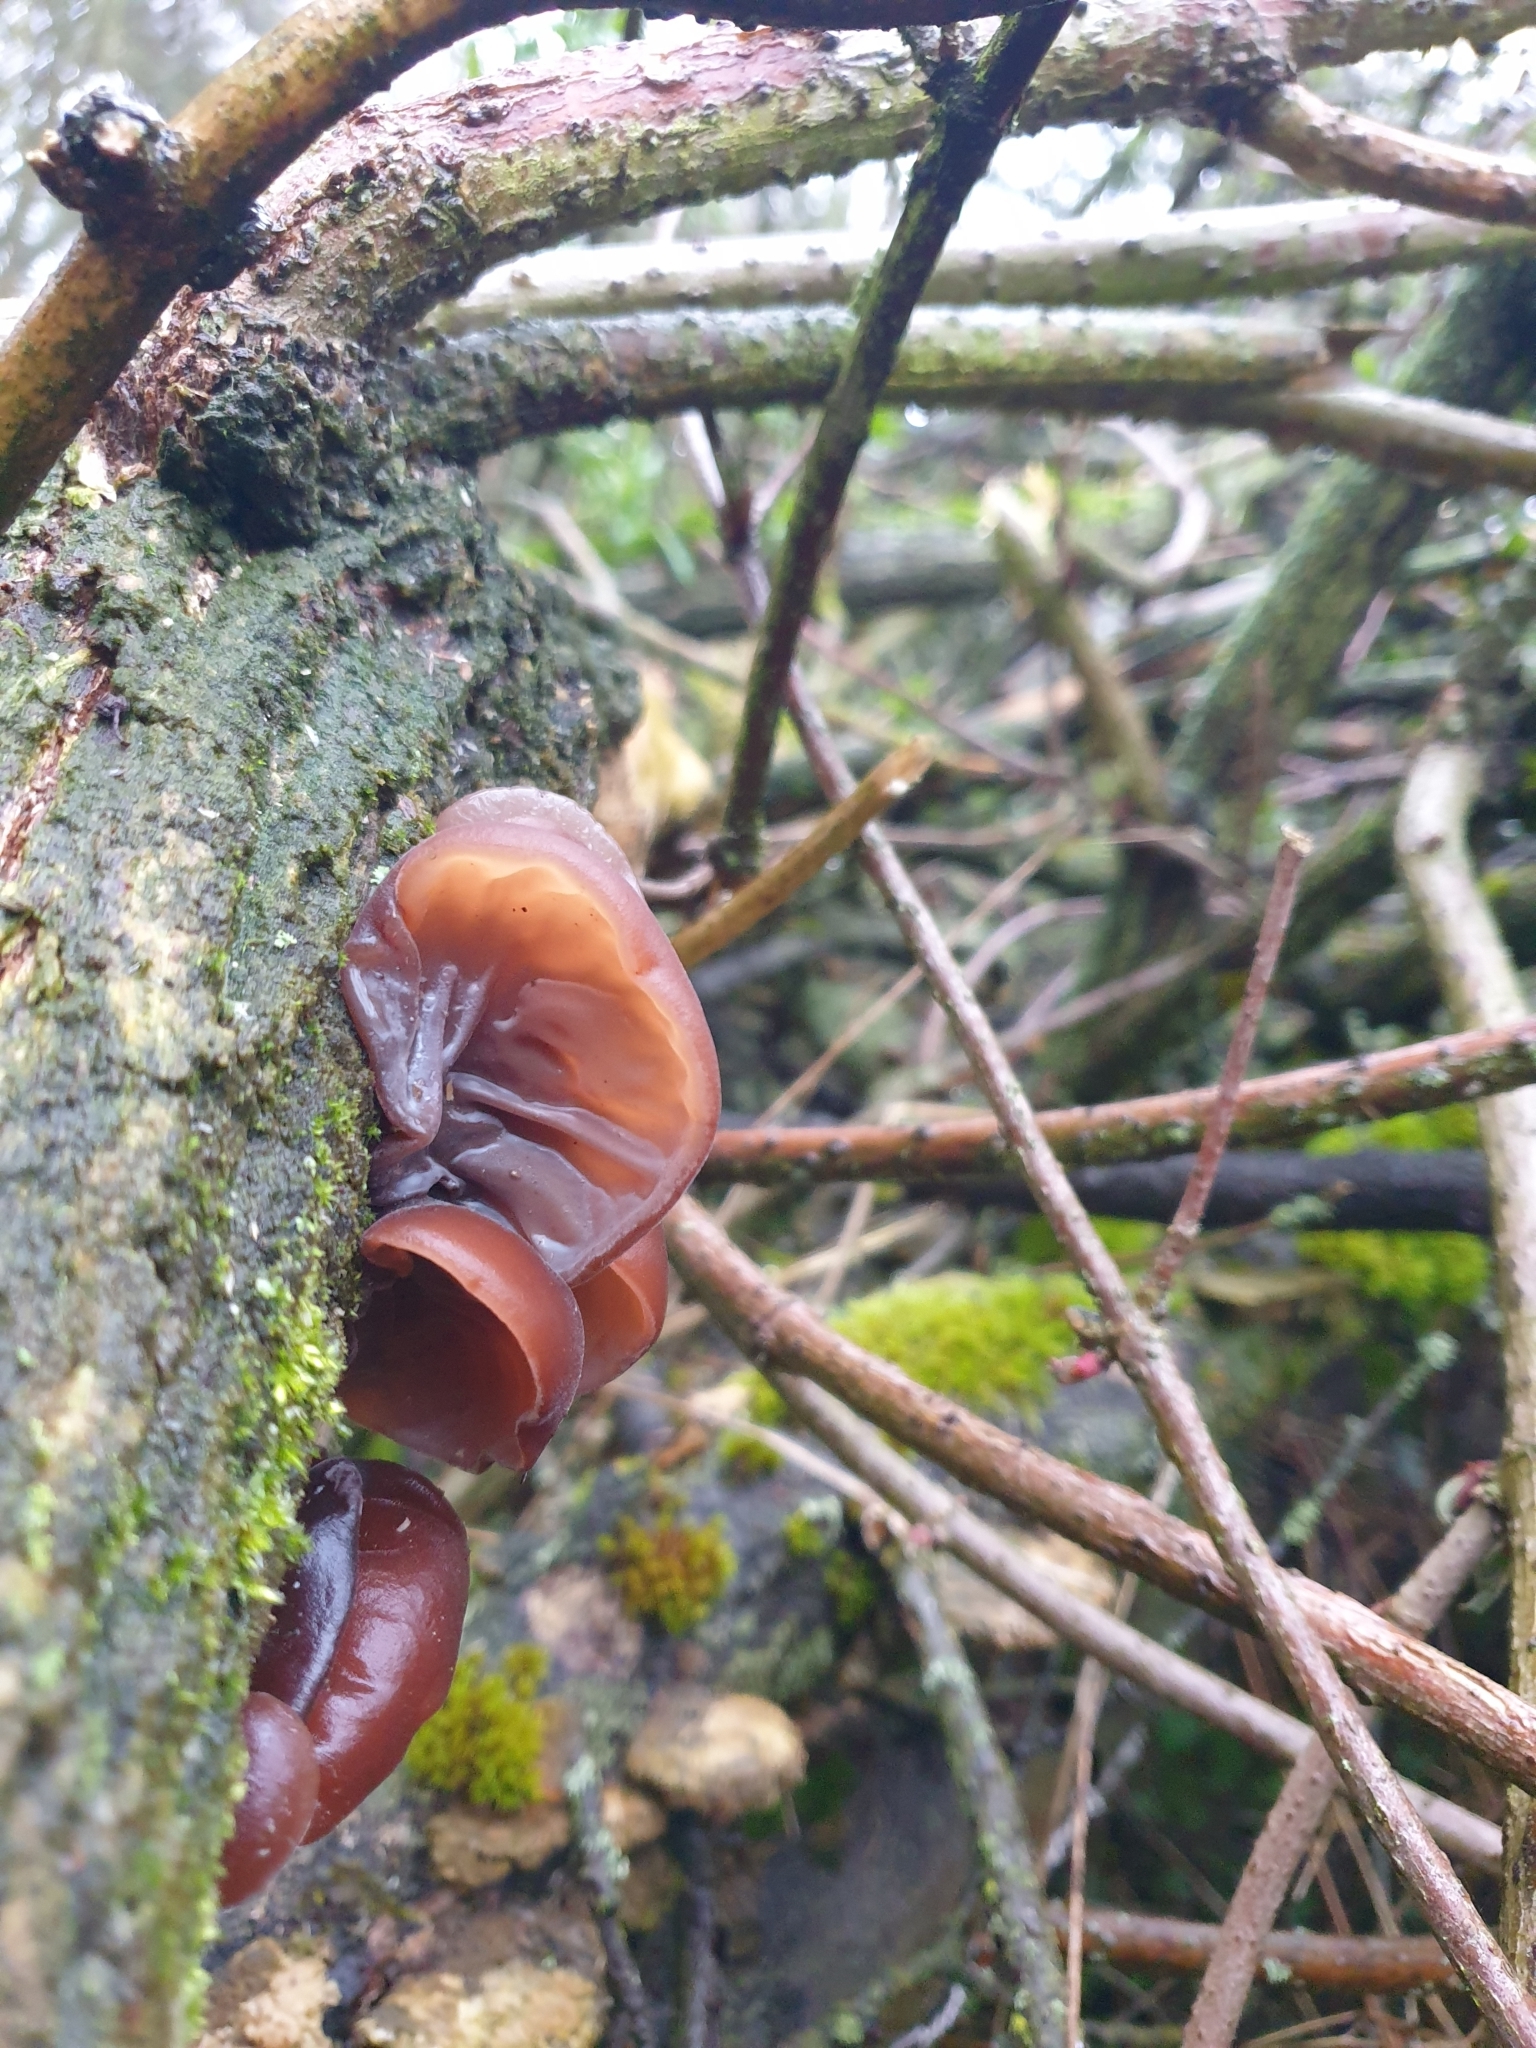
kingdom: Fungi
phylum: Basidiomycota
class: Agaricomycetes
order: Auriculariales
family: Auriculariaceae
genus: Auricularia
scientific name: Auricularia auricula-judae
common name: Jelly ear
